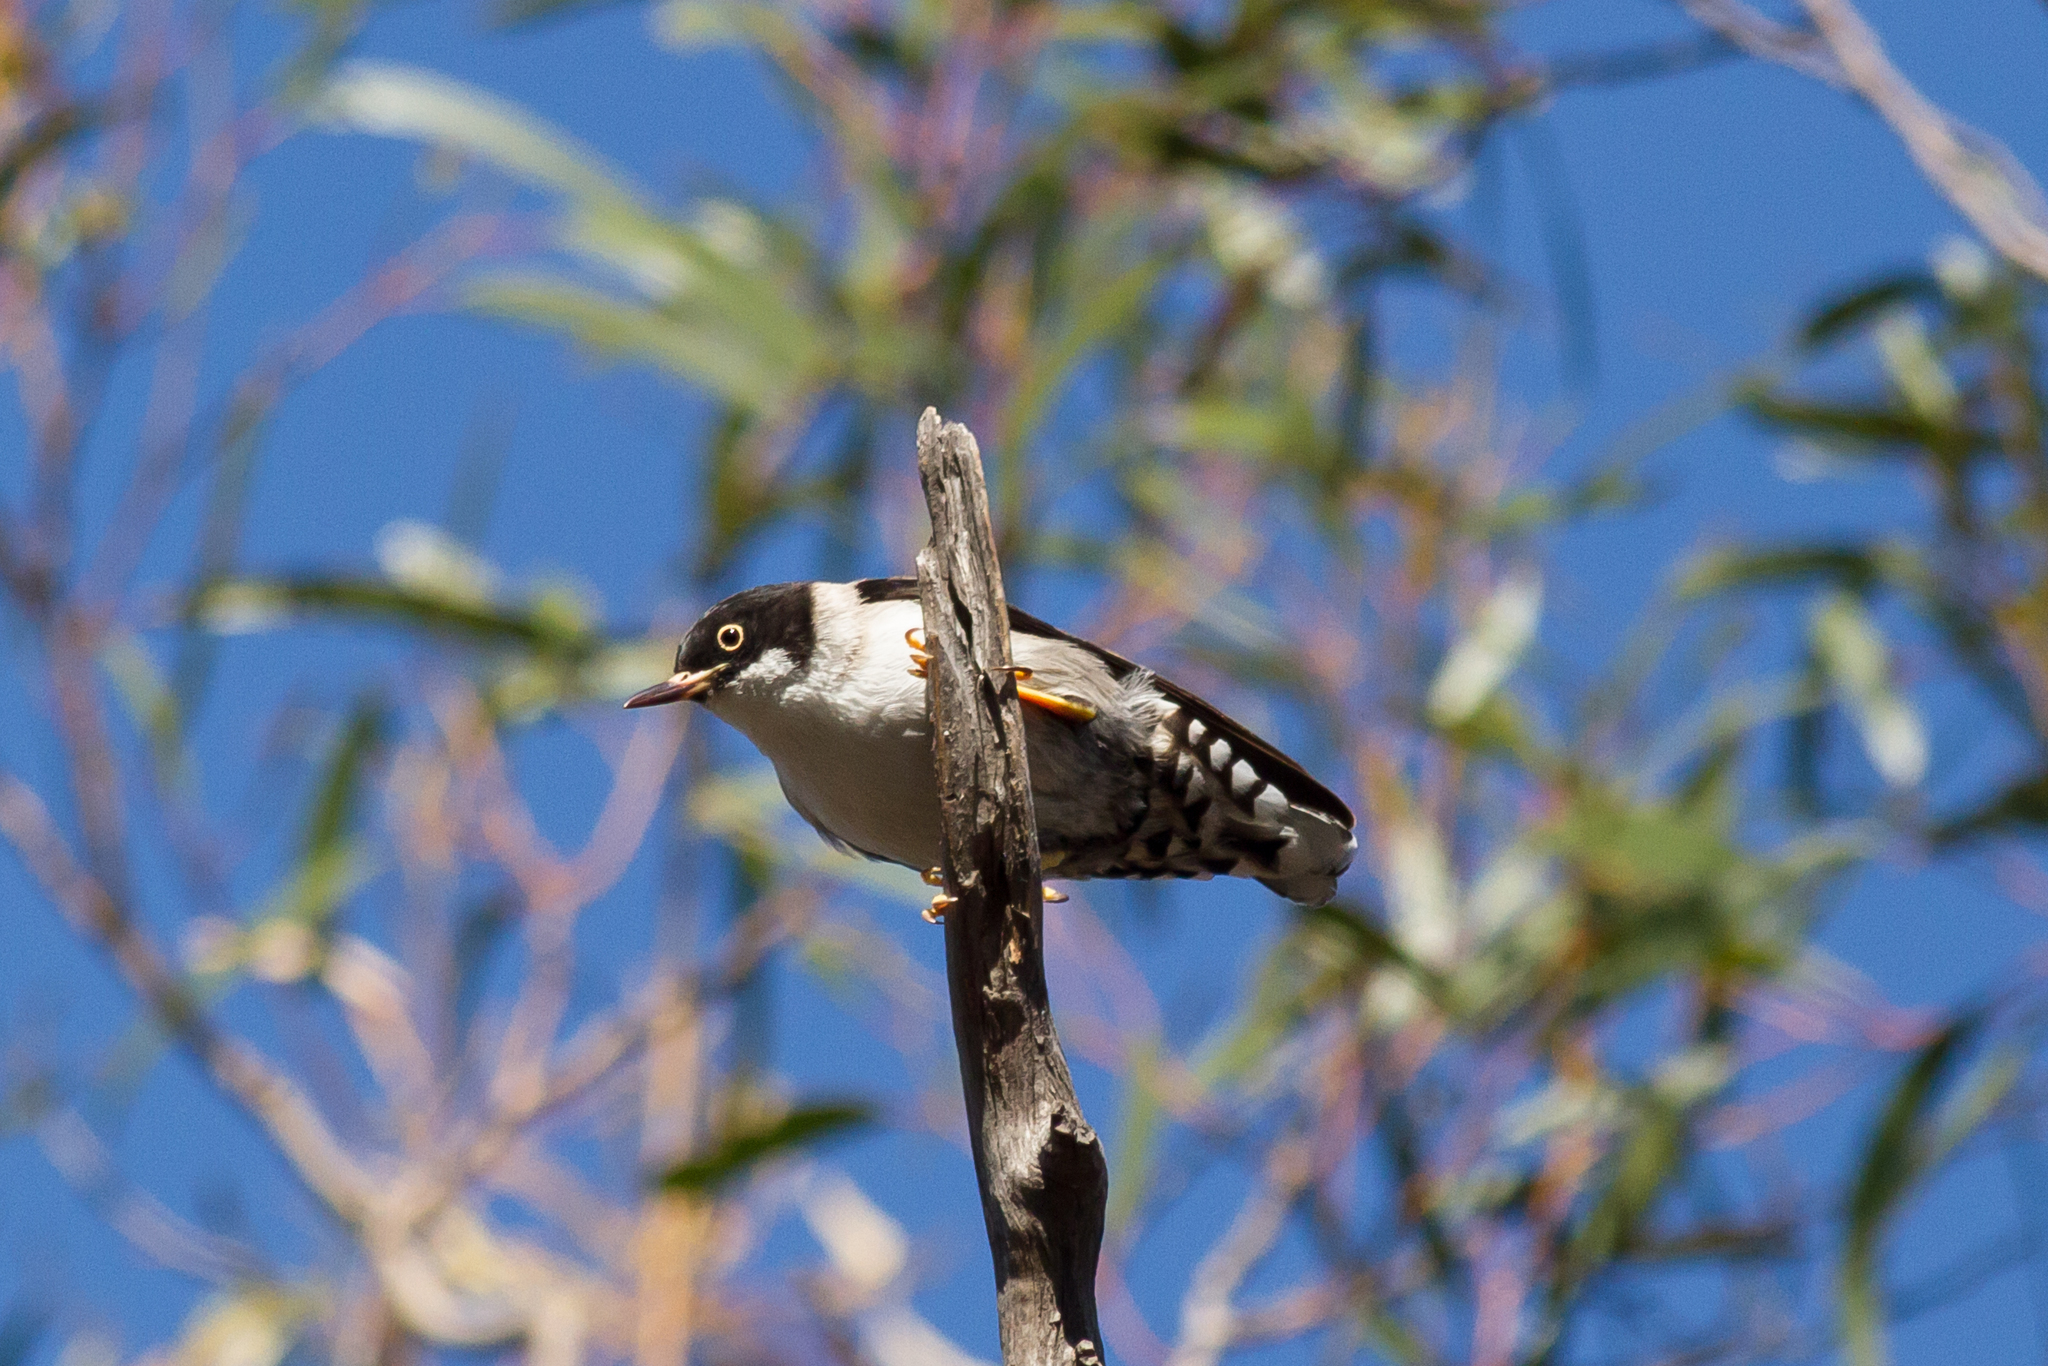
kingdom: Animalia
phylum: Chordata
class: Aves
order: Passeriformes
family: Neosittidae
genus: Daphoenositta
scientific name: Daphoenositta chrysoptera
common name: Varied sittella
